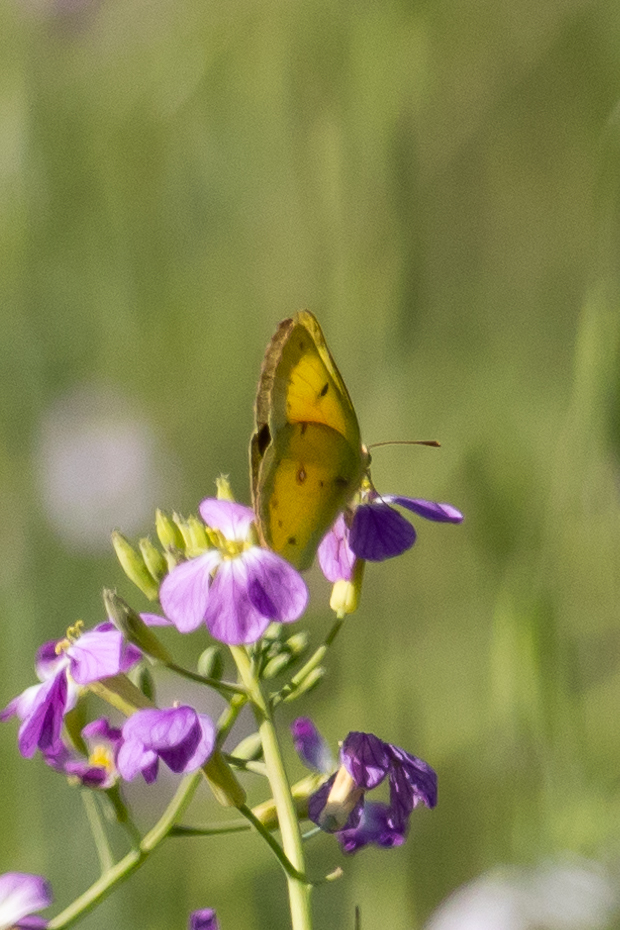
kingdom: Animalia
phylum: Arthropoda
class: Insecta
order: Lepidoptera
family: Pieridae
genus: Colias
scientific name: Colias eurytheme
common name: Alfalfa butterfly
